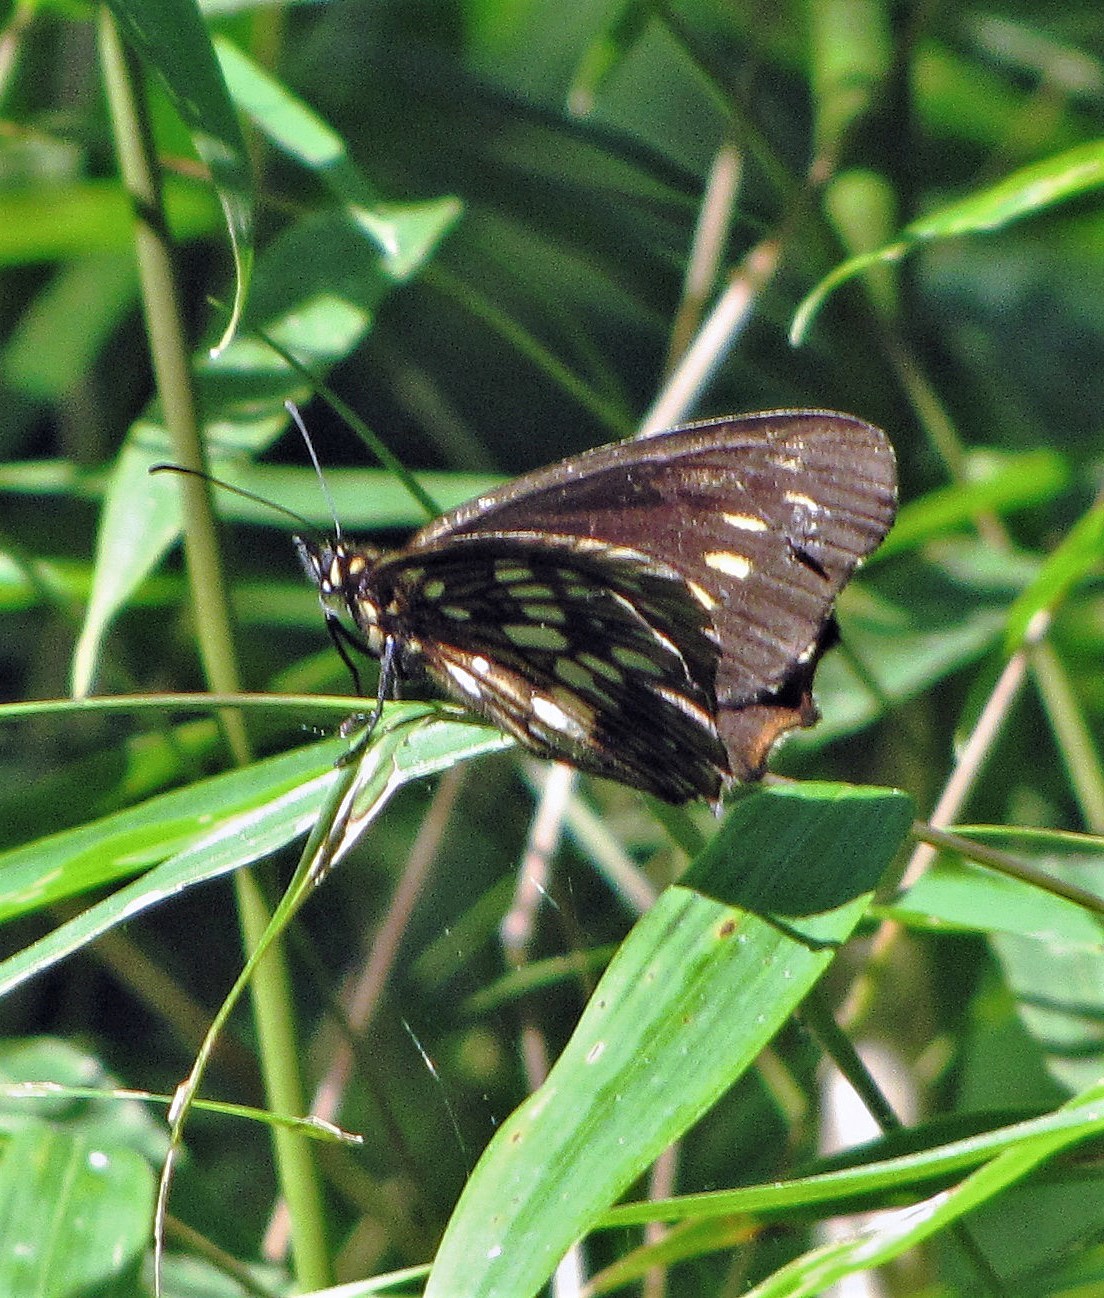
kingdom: Animalia
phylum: Arthropoda
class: Insecta
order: Lepidoptera
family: Nymphalidae
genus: Eteona
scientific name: Eteona tisiphone
